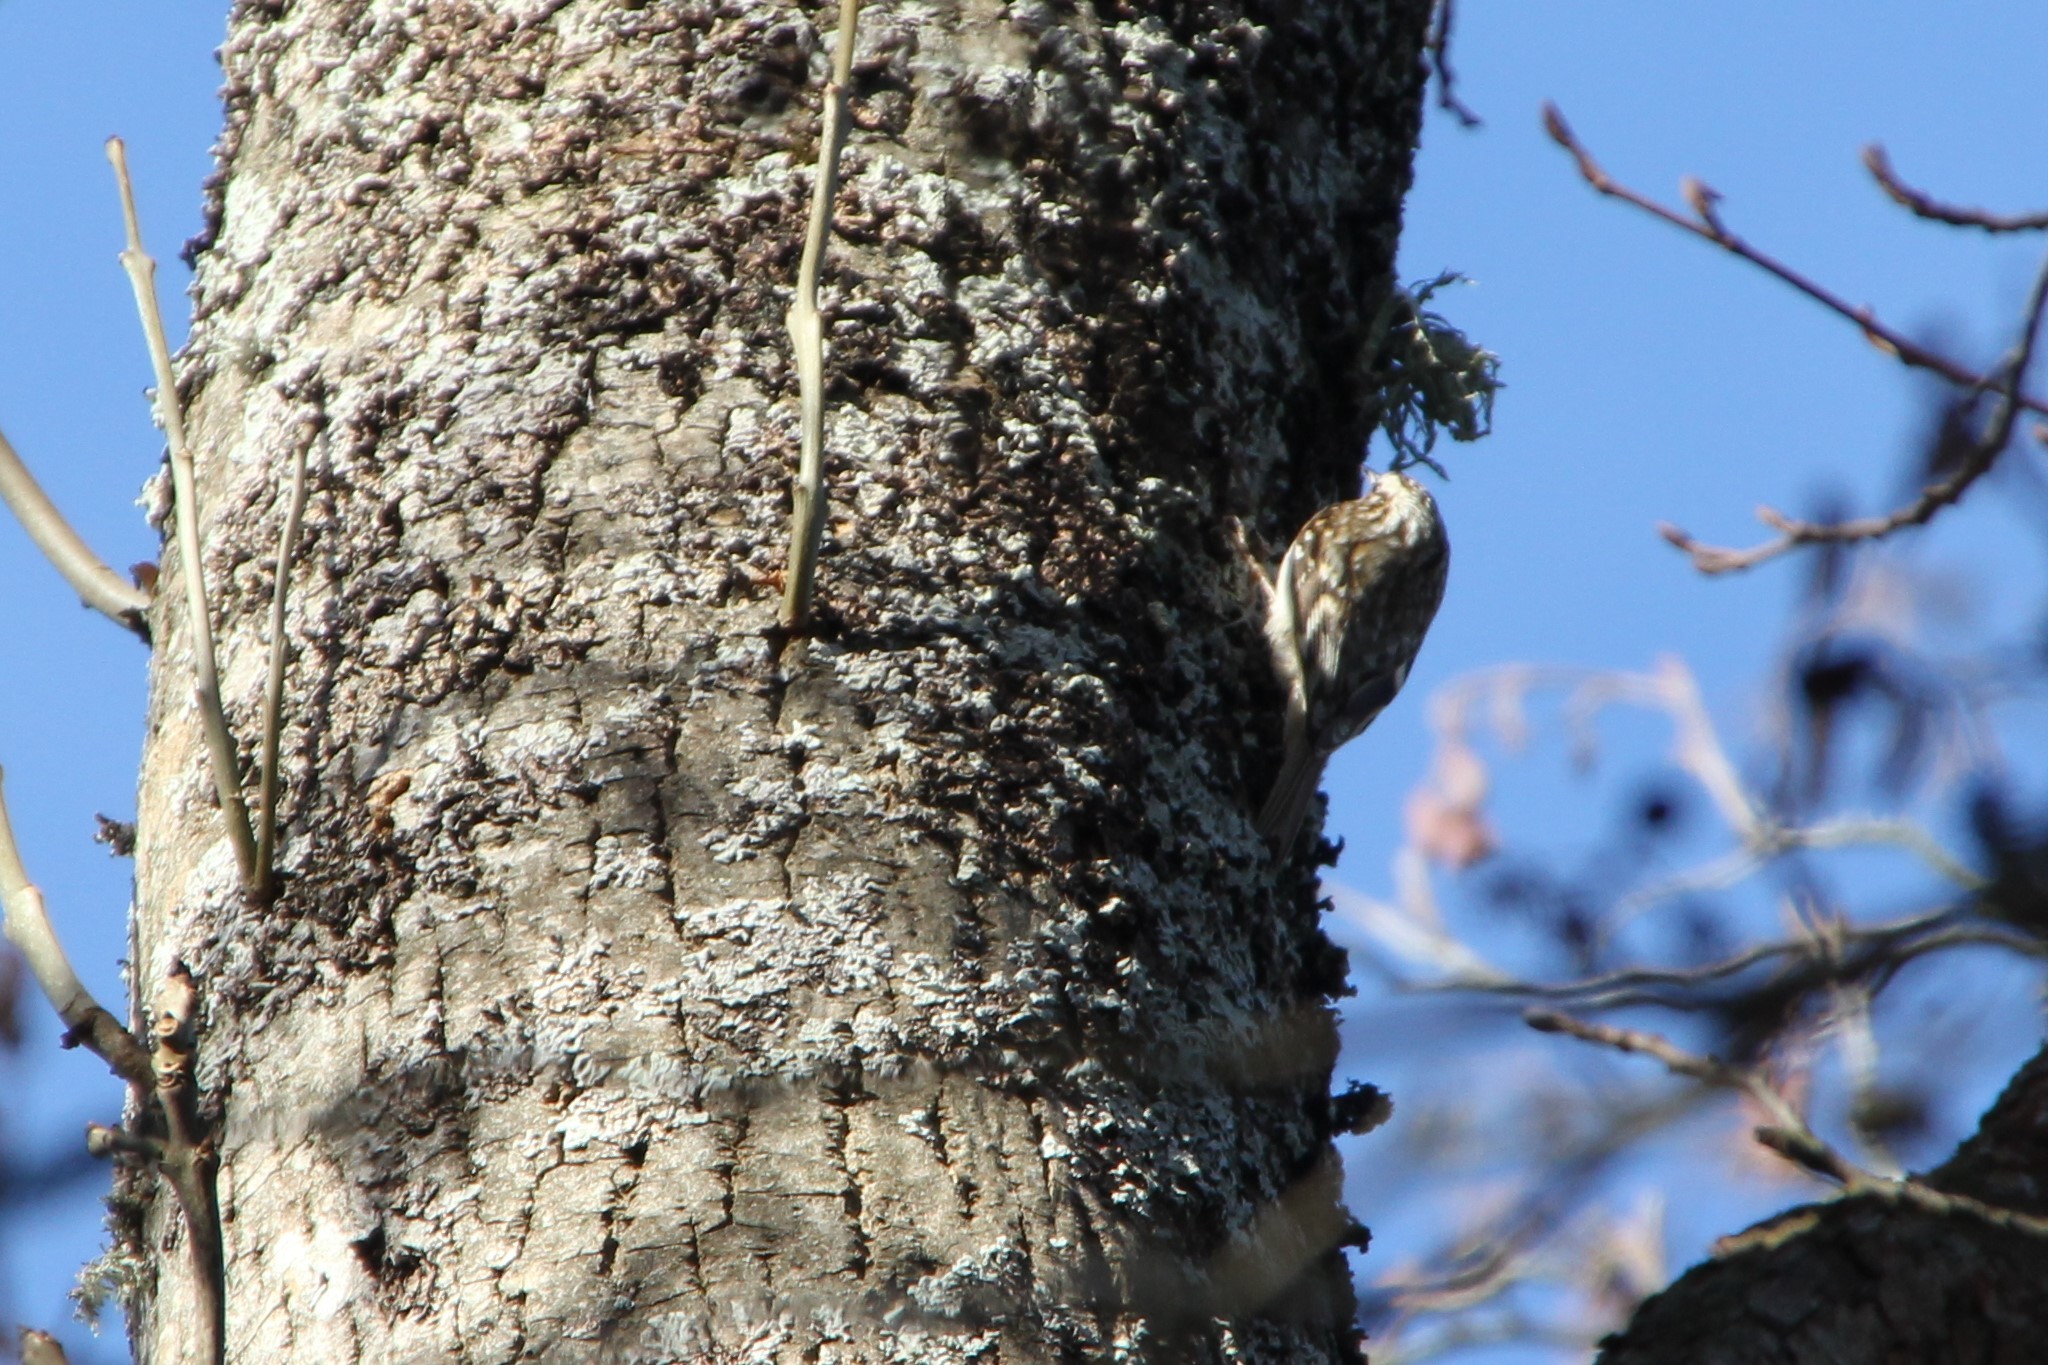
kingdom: Animalia
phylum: Chordata
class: Aves
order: Passeriformes
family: Certhiidae
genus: Certhia
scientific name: Certhia familiaris
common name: Eurasian treecreeper
